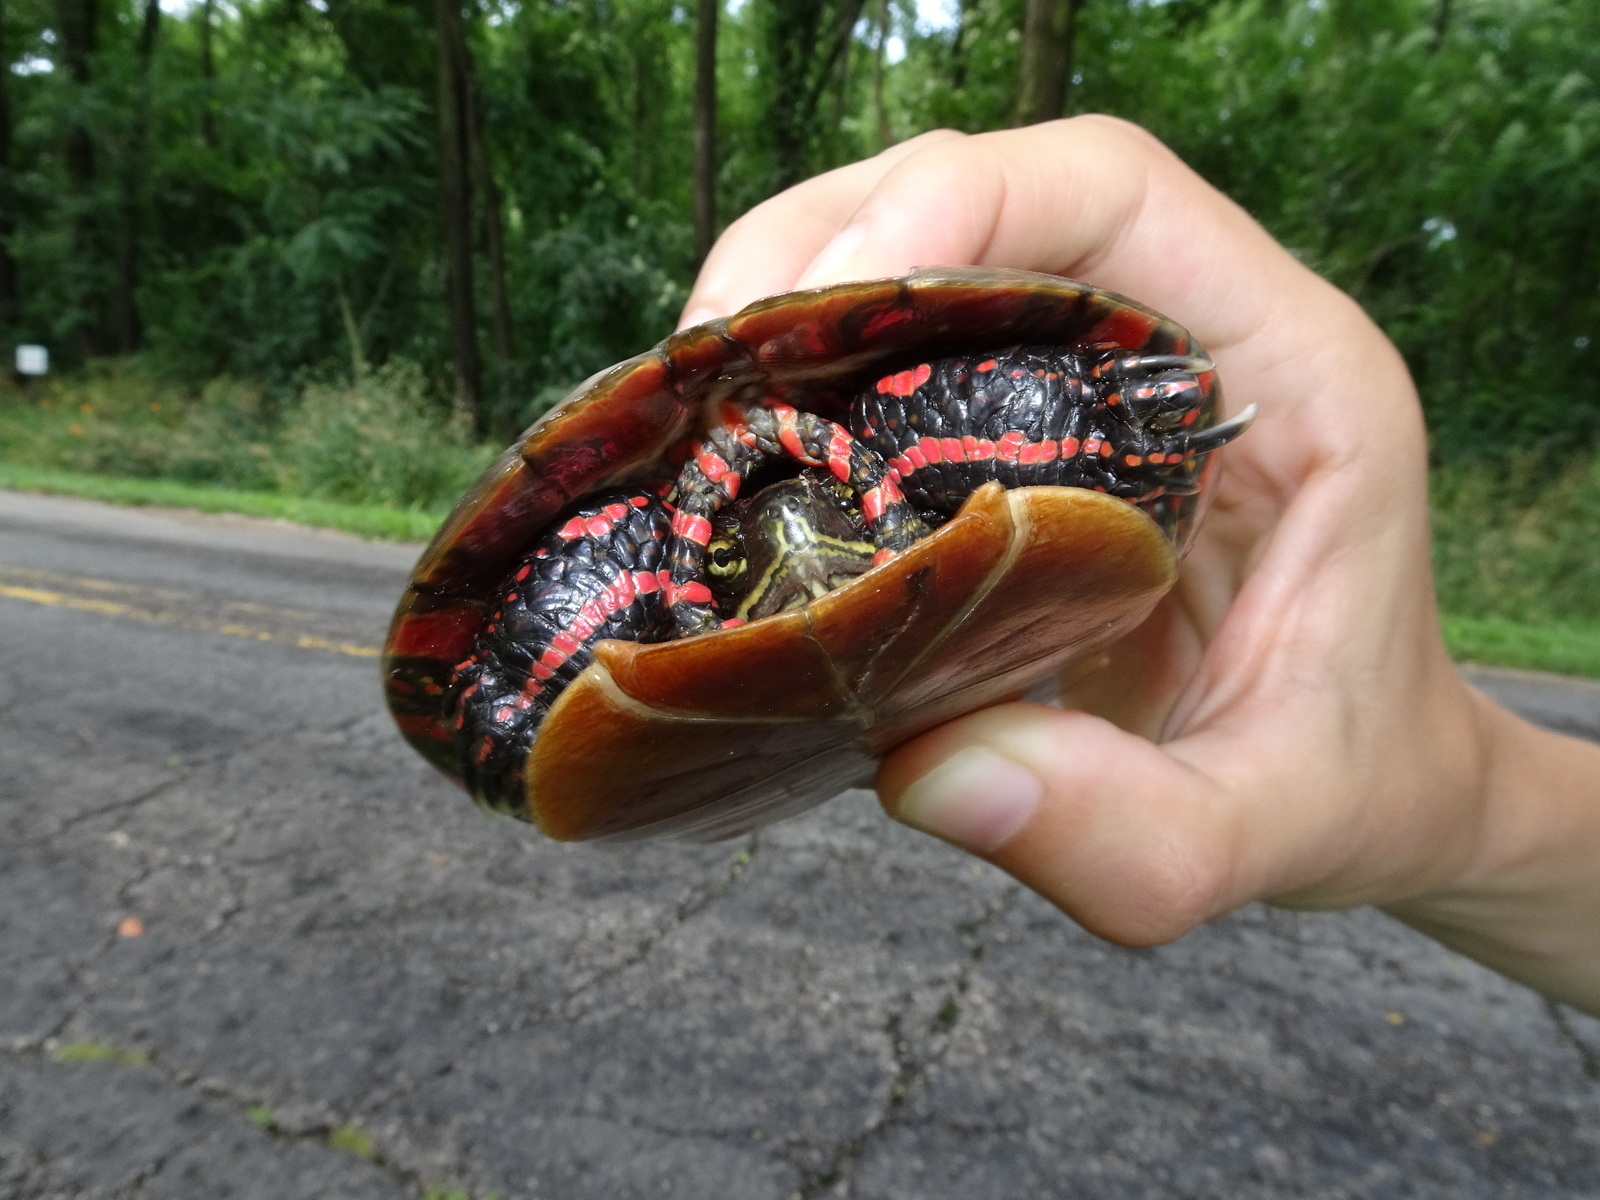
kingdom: Animalia
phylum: Chordata
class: Testudines
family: Emydidae
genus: Chrysemys
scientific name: Chrysemys picta
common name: Painted turtle
